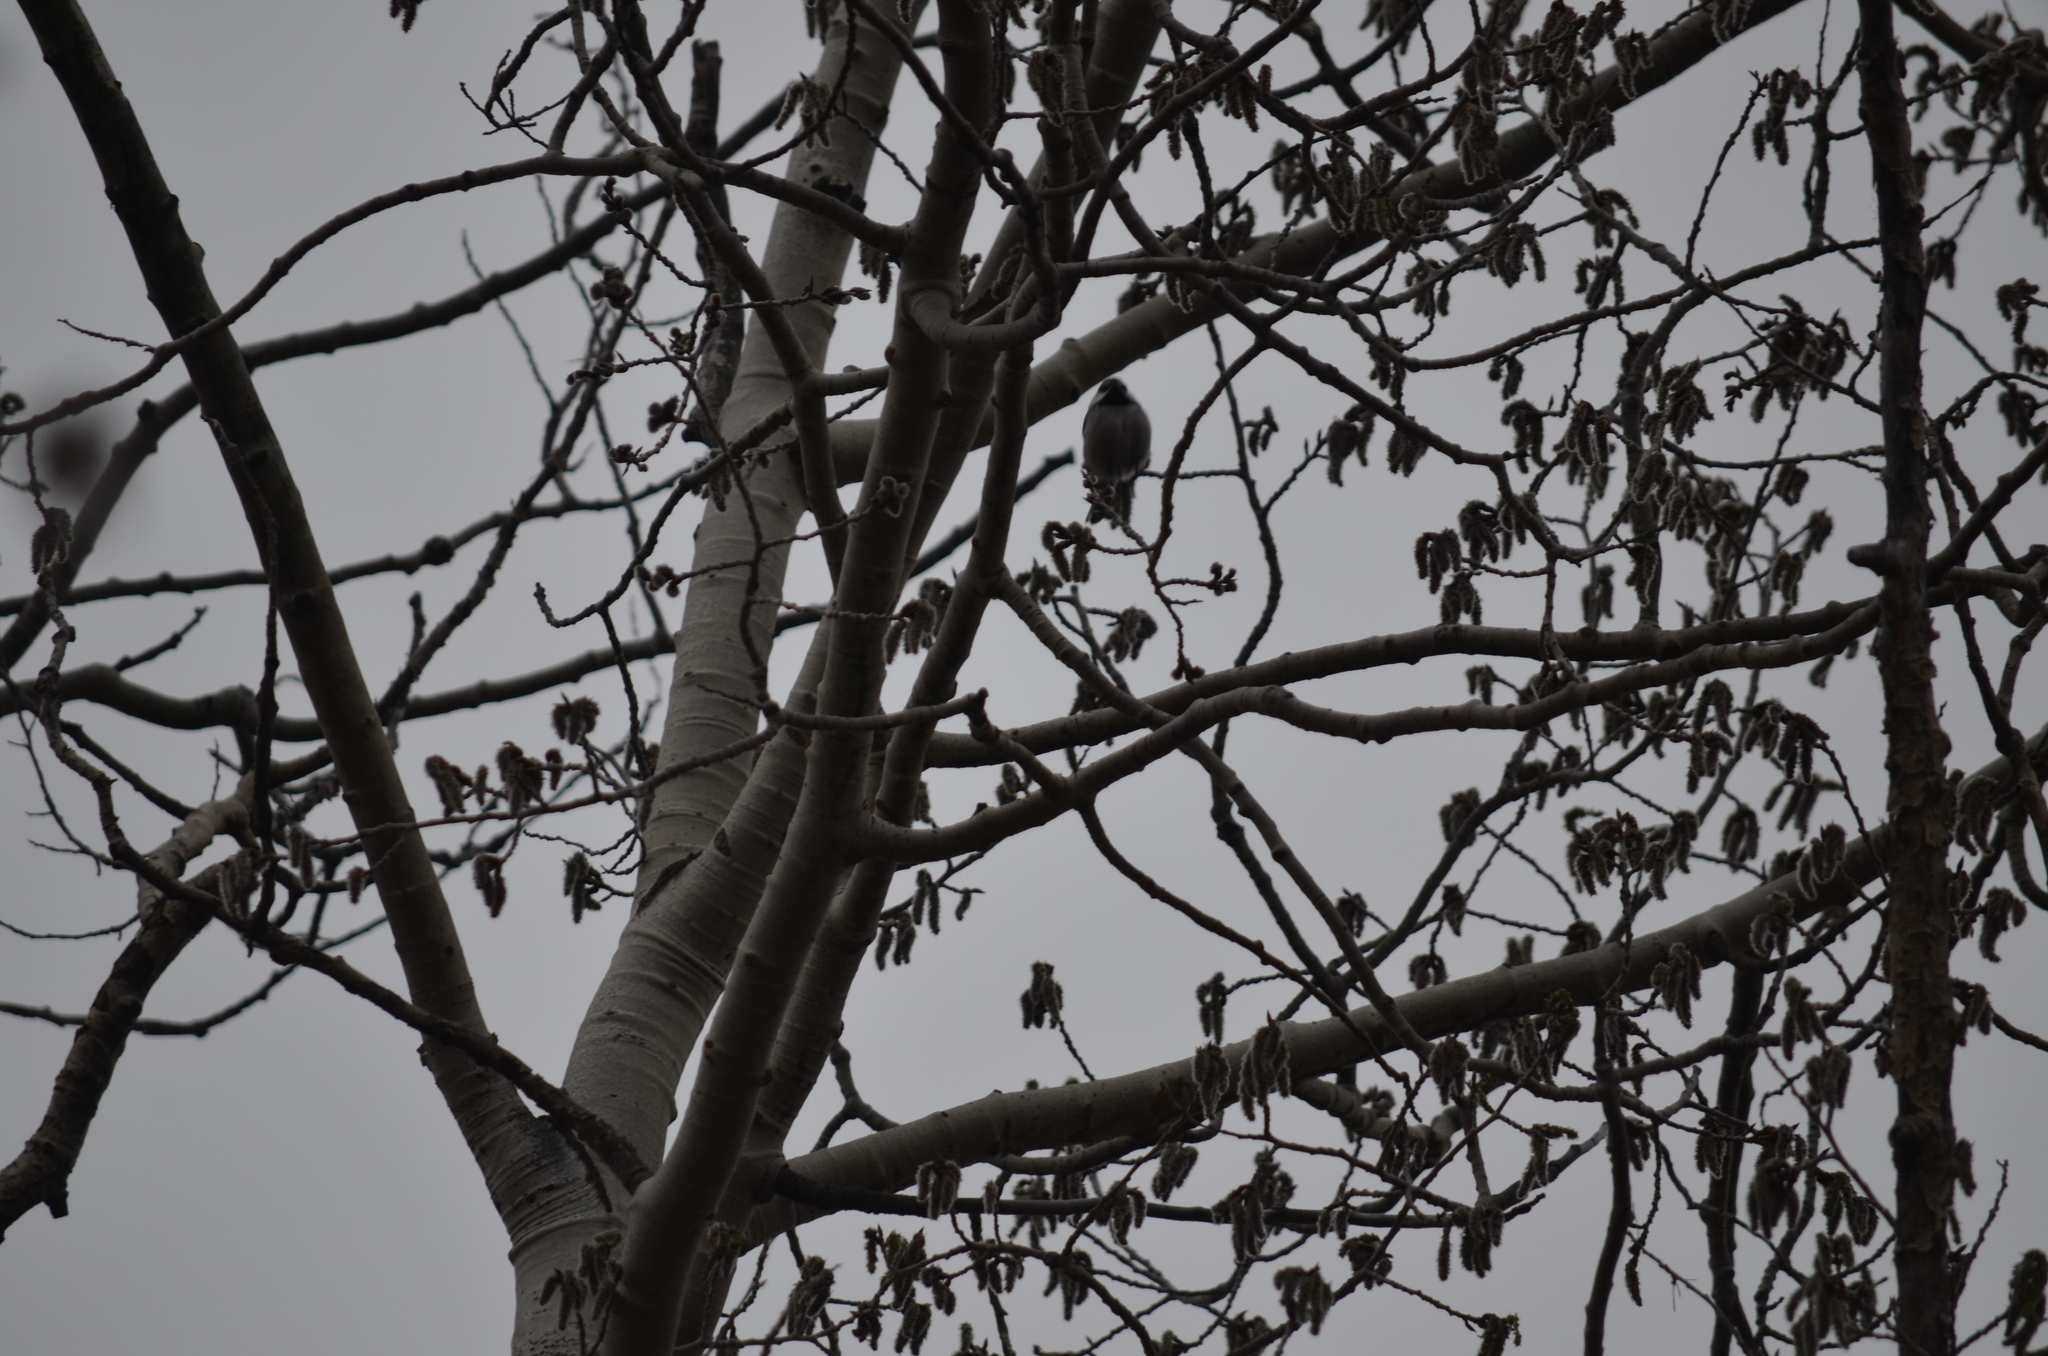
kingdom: Animalia
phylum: Chordata
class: Aves
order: Passeriformes
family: Paridae
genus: Poecile
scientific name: Poecile gambeli
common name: Mountain chickadee
